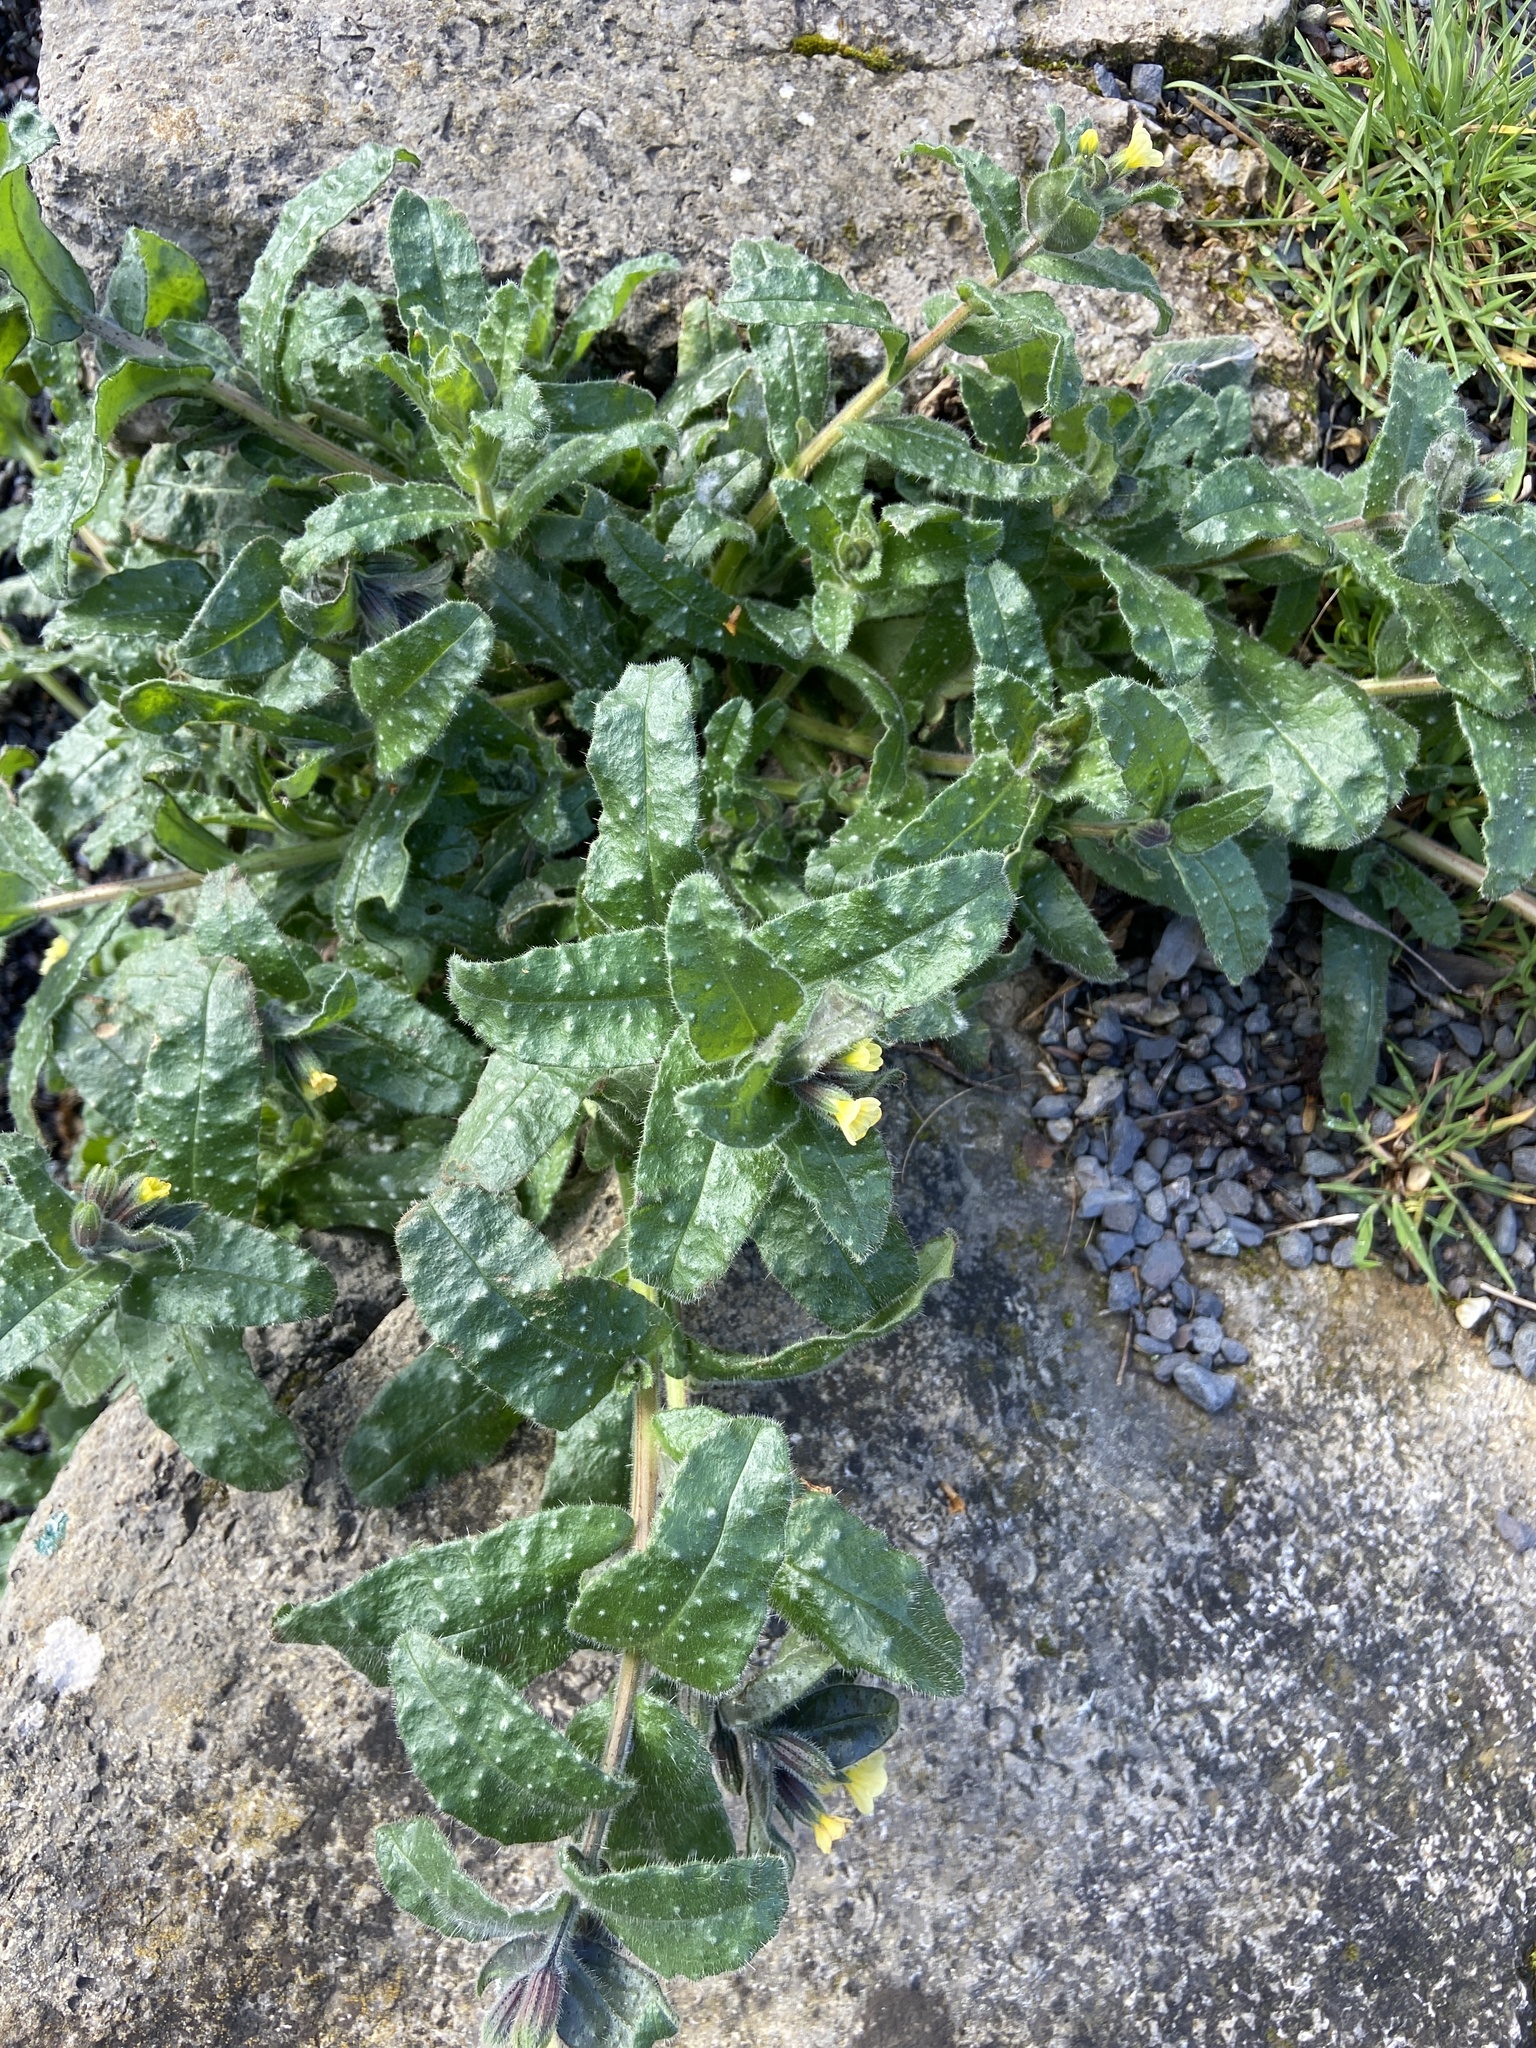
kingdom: Plantae
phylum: Tracheophyta
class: Magnoliopsida
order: Boraginales
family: Boraginaceae
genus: Nonea
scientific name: Nonea lutea
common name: Yellow nonea
